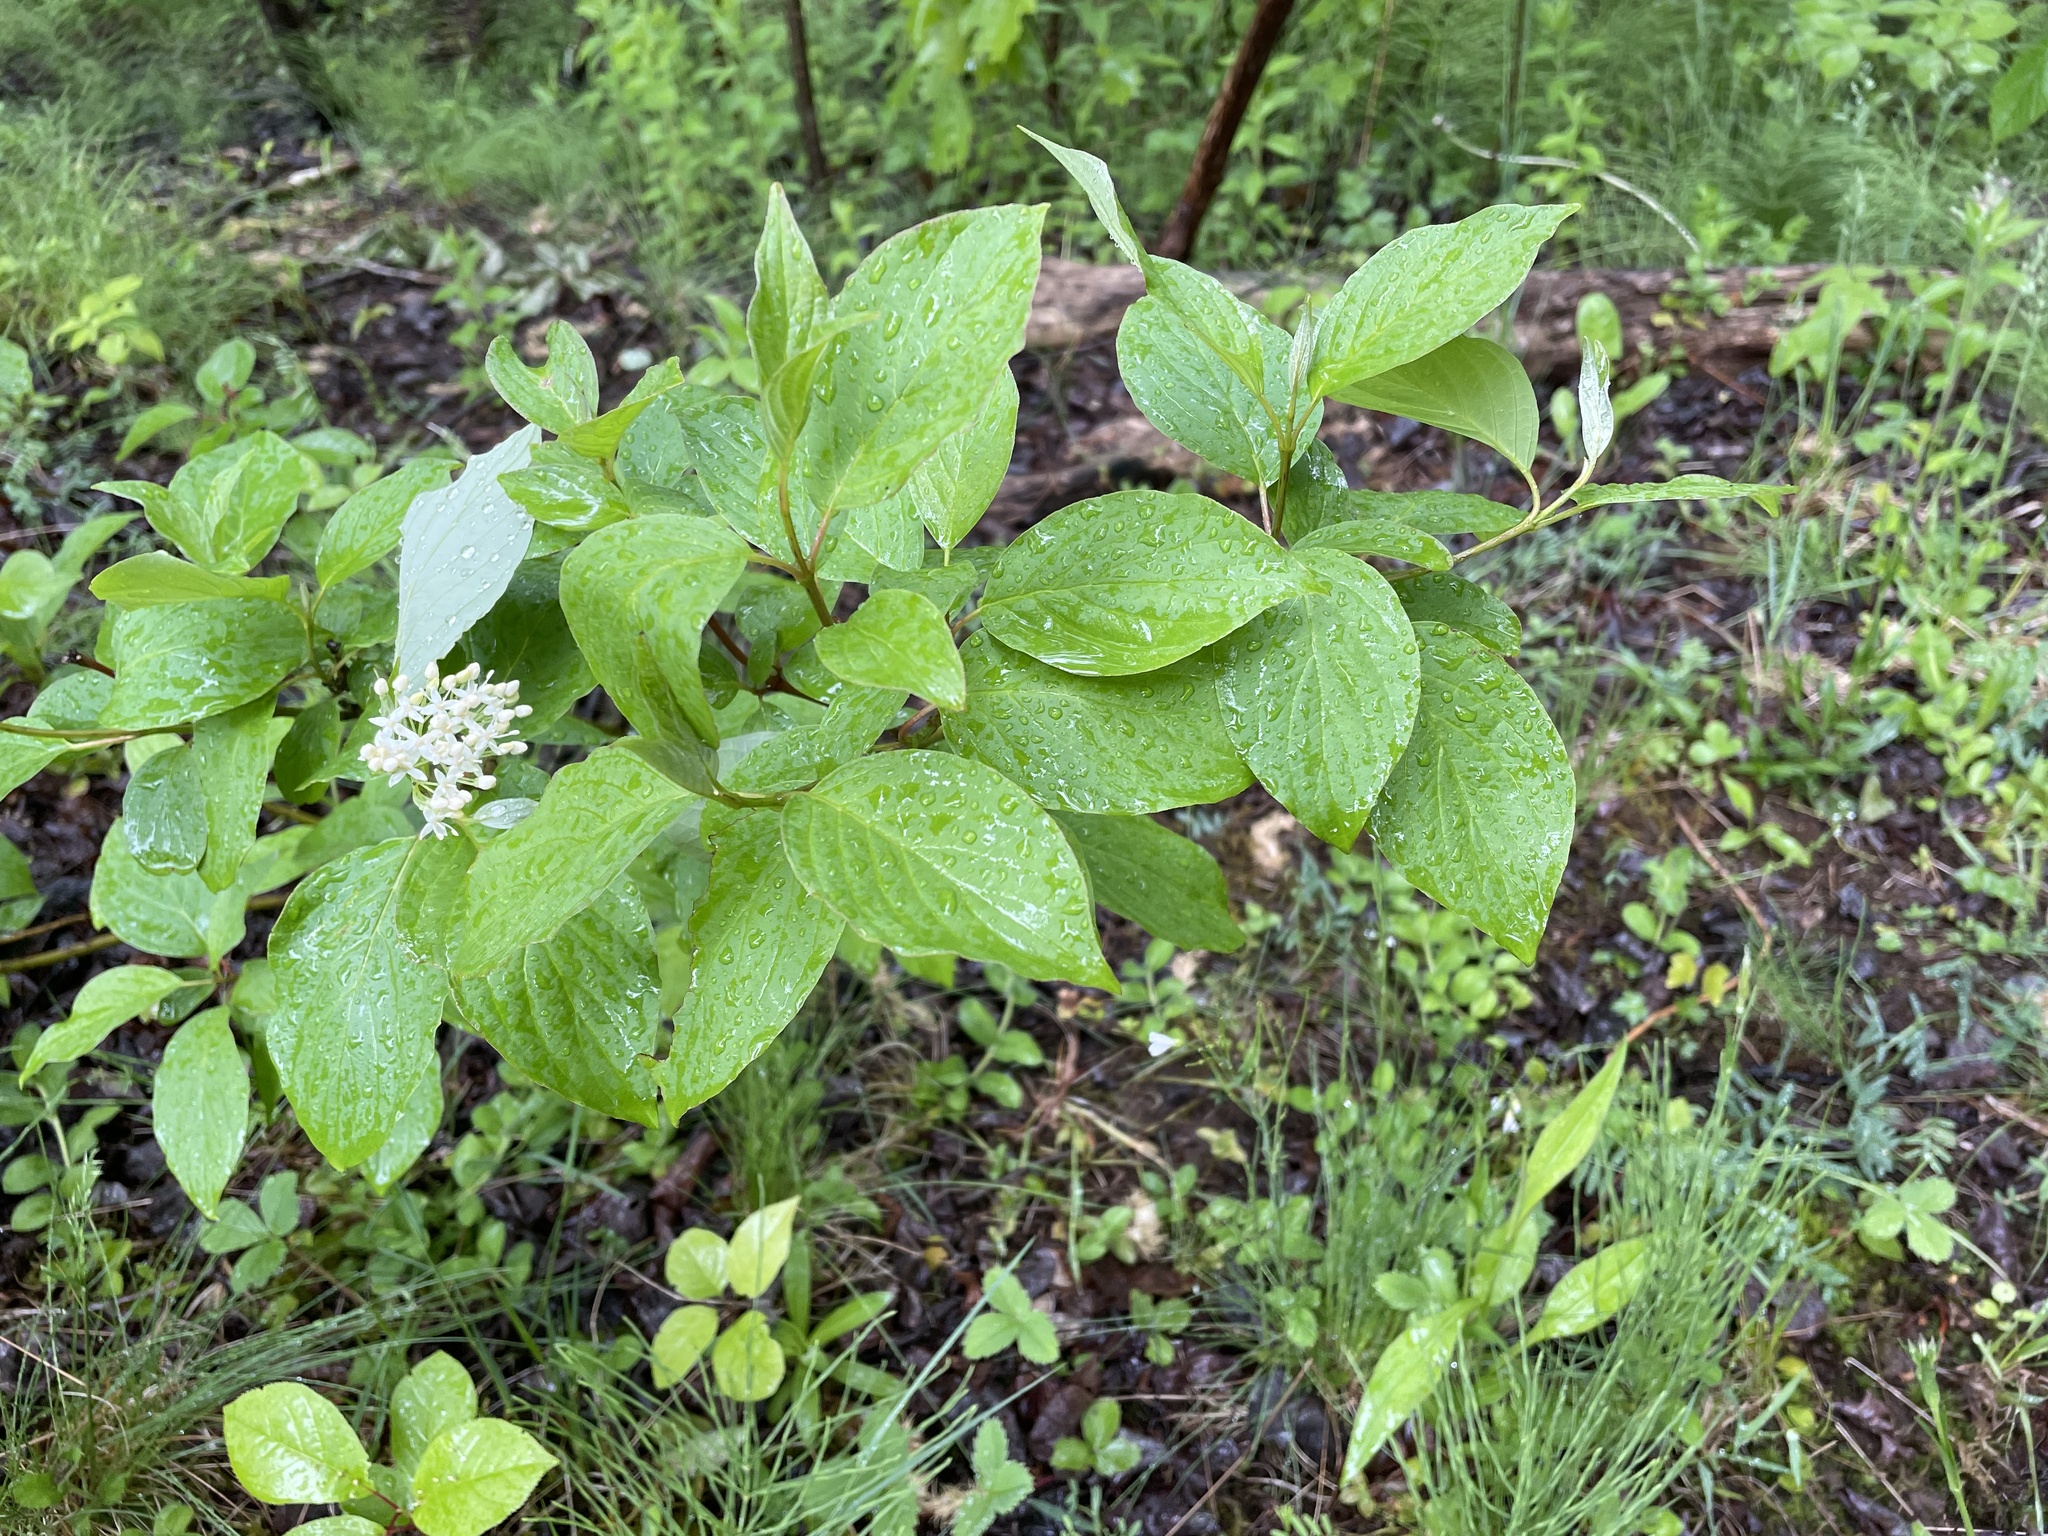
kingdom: Plantae
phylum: Tracheophyta
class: Magnoliopsida
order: Cornales
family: Cornaceae
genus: Cornus
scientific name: Cornus sericea
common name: Red-osier dogwood
